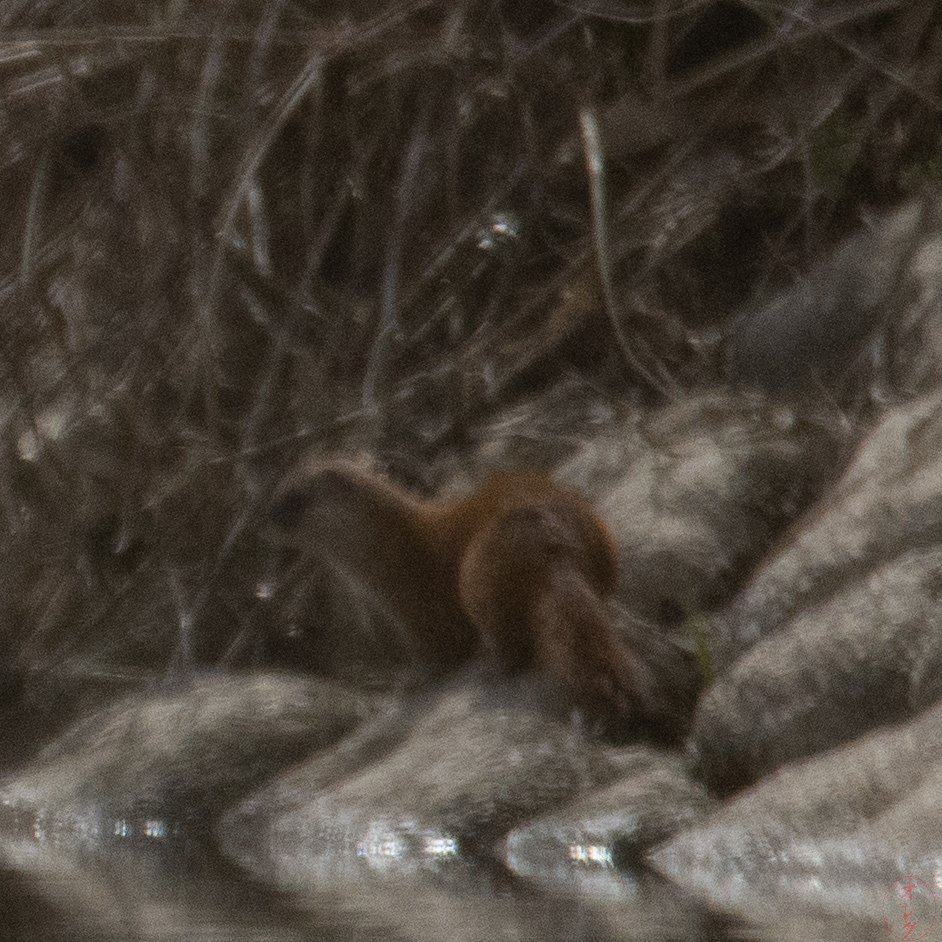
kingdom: Animalia
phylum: Chordata
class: Mammalia
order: Carnivora
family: Mustelidae
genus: Mustela
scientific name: Mustela itatsi
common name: Japanese weasel
